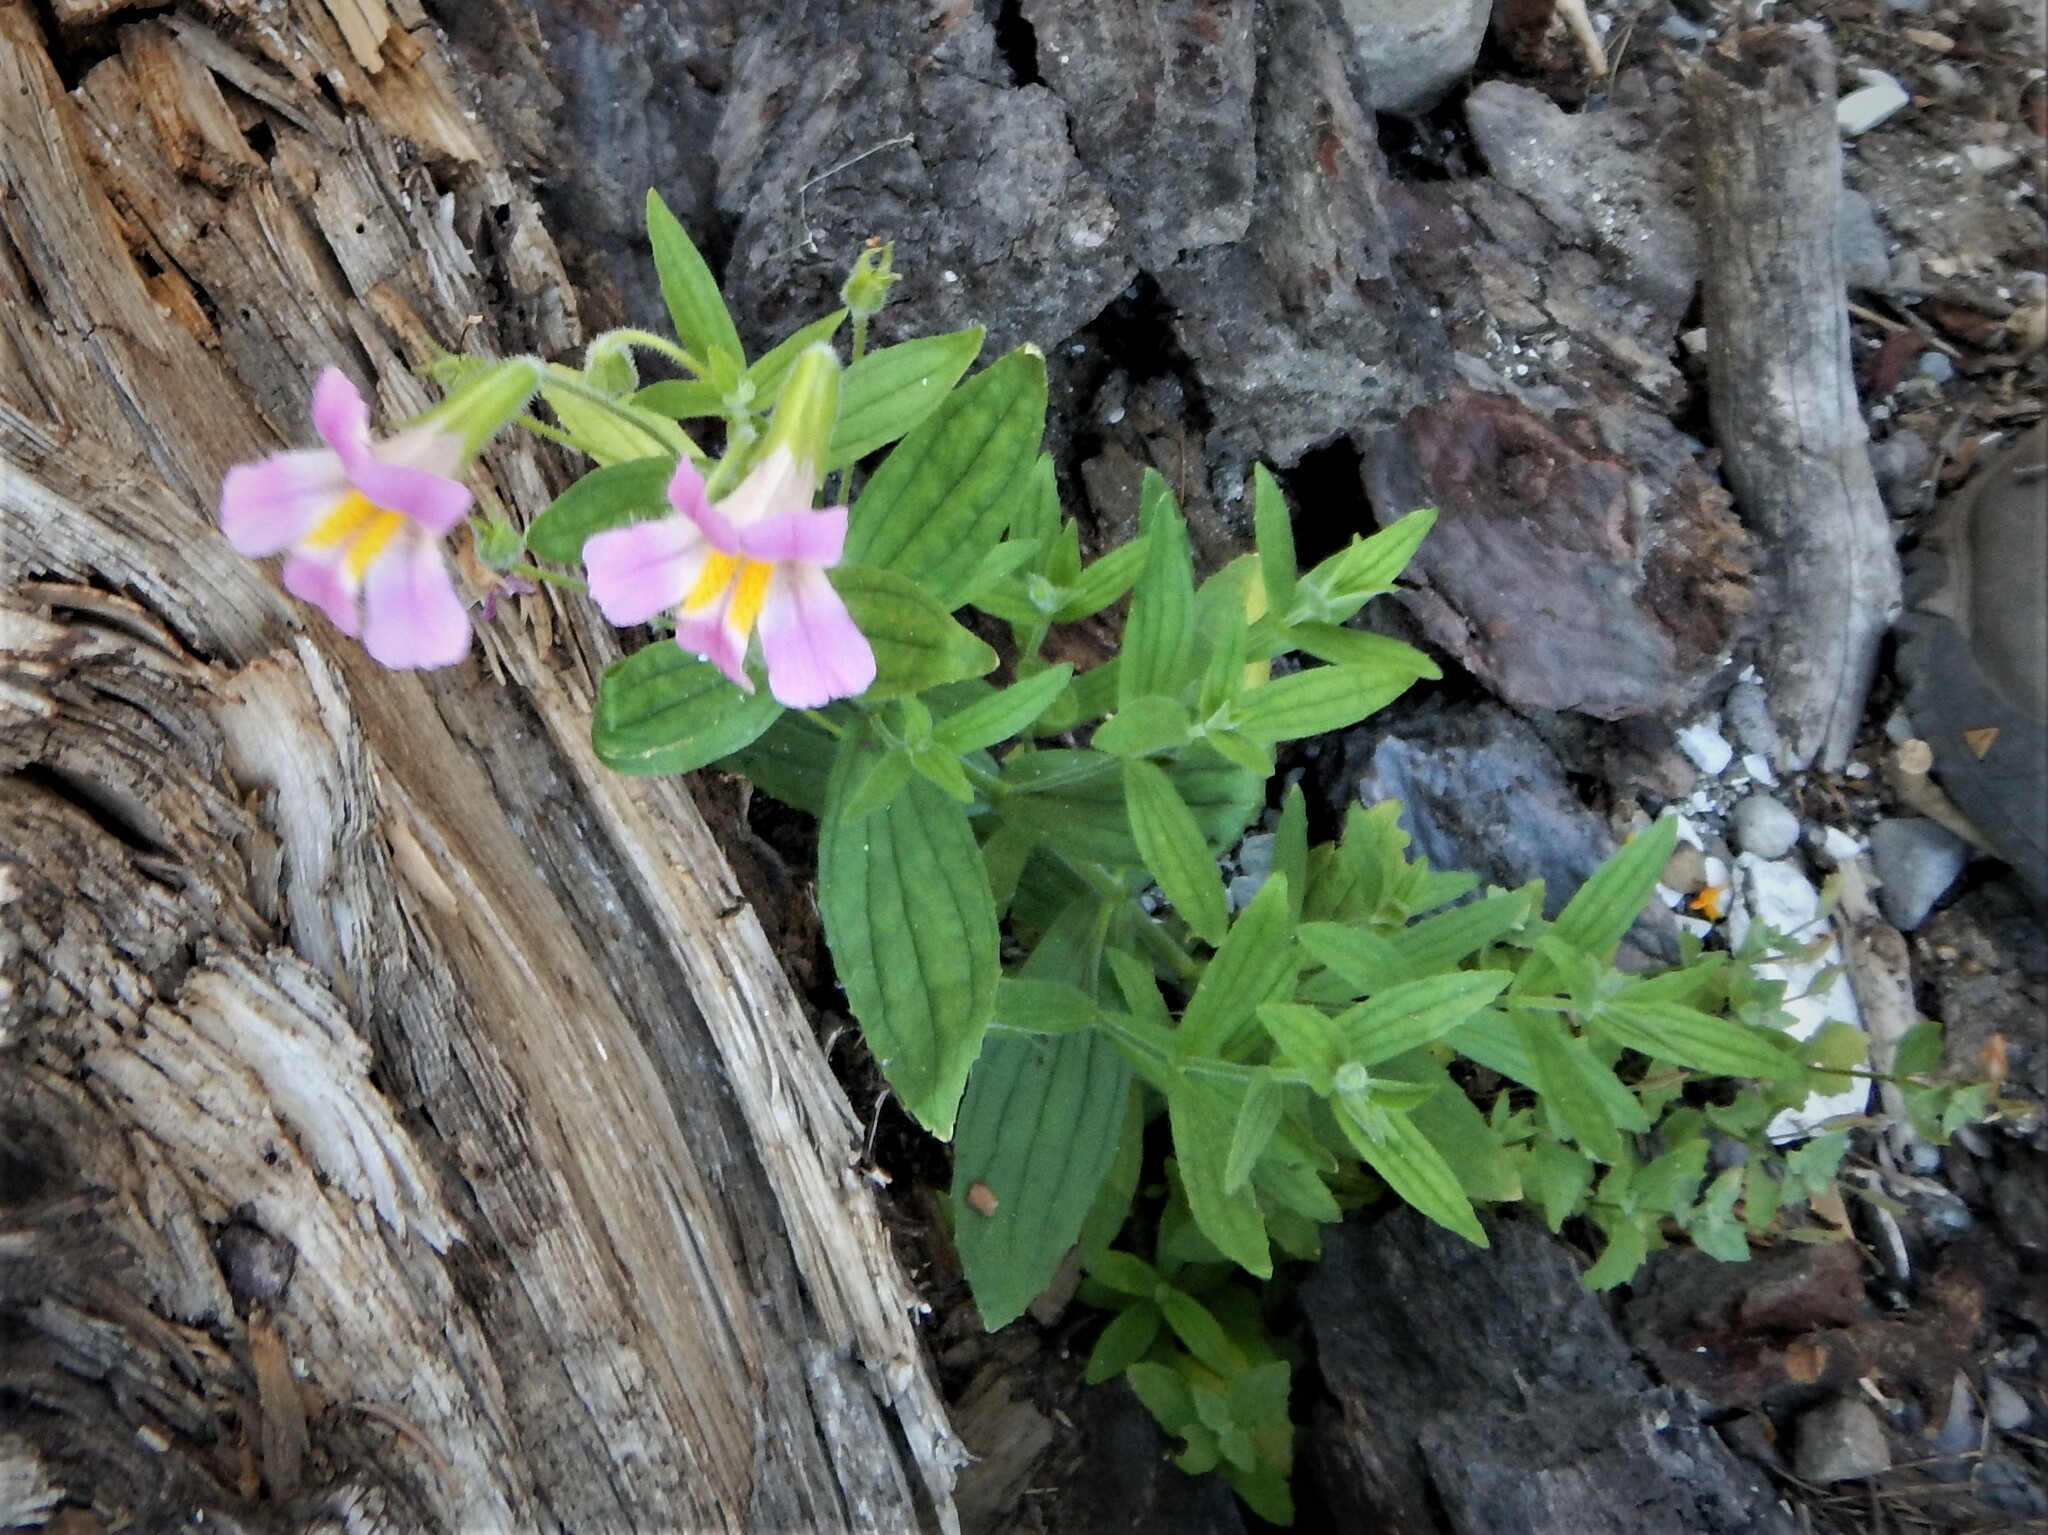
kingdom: Plantae
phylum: Tracheophyta
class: Magnoliopsida
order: Lamiales
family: Phrymaceae
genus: Erythranthe
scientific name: Erythranthe erubescens
